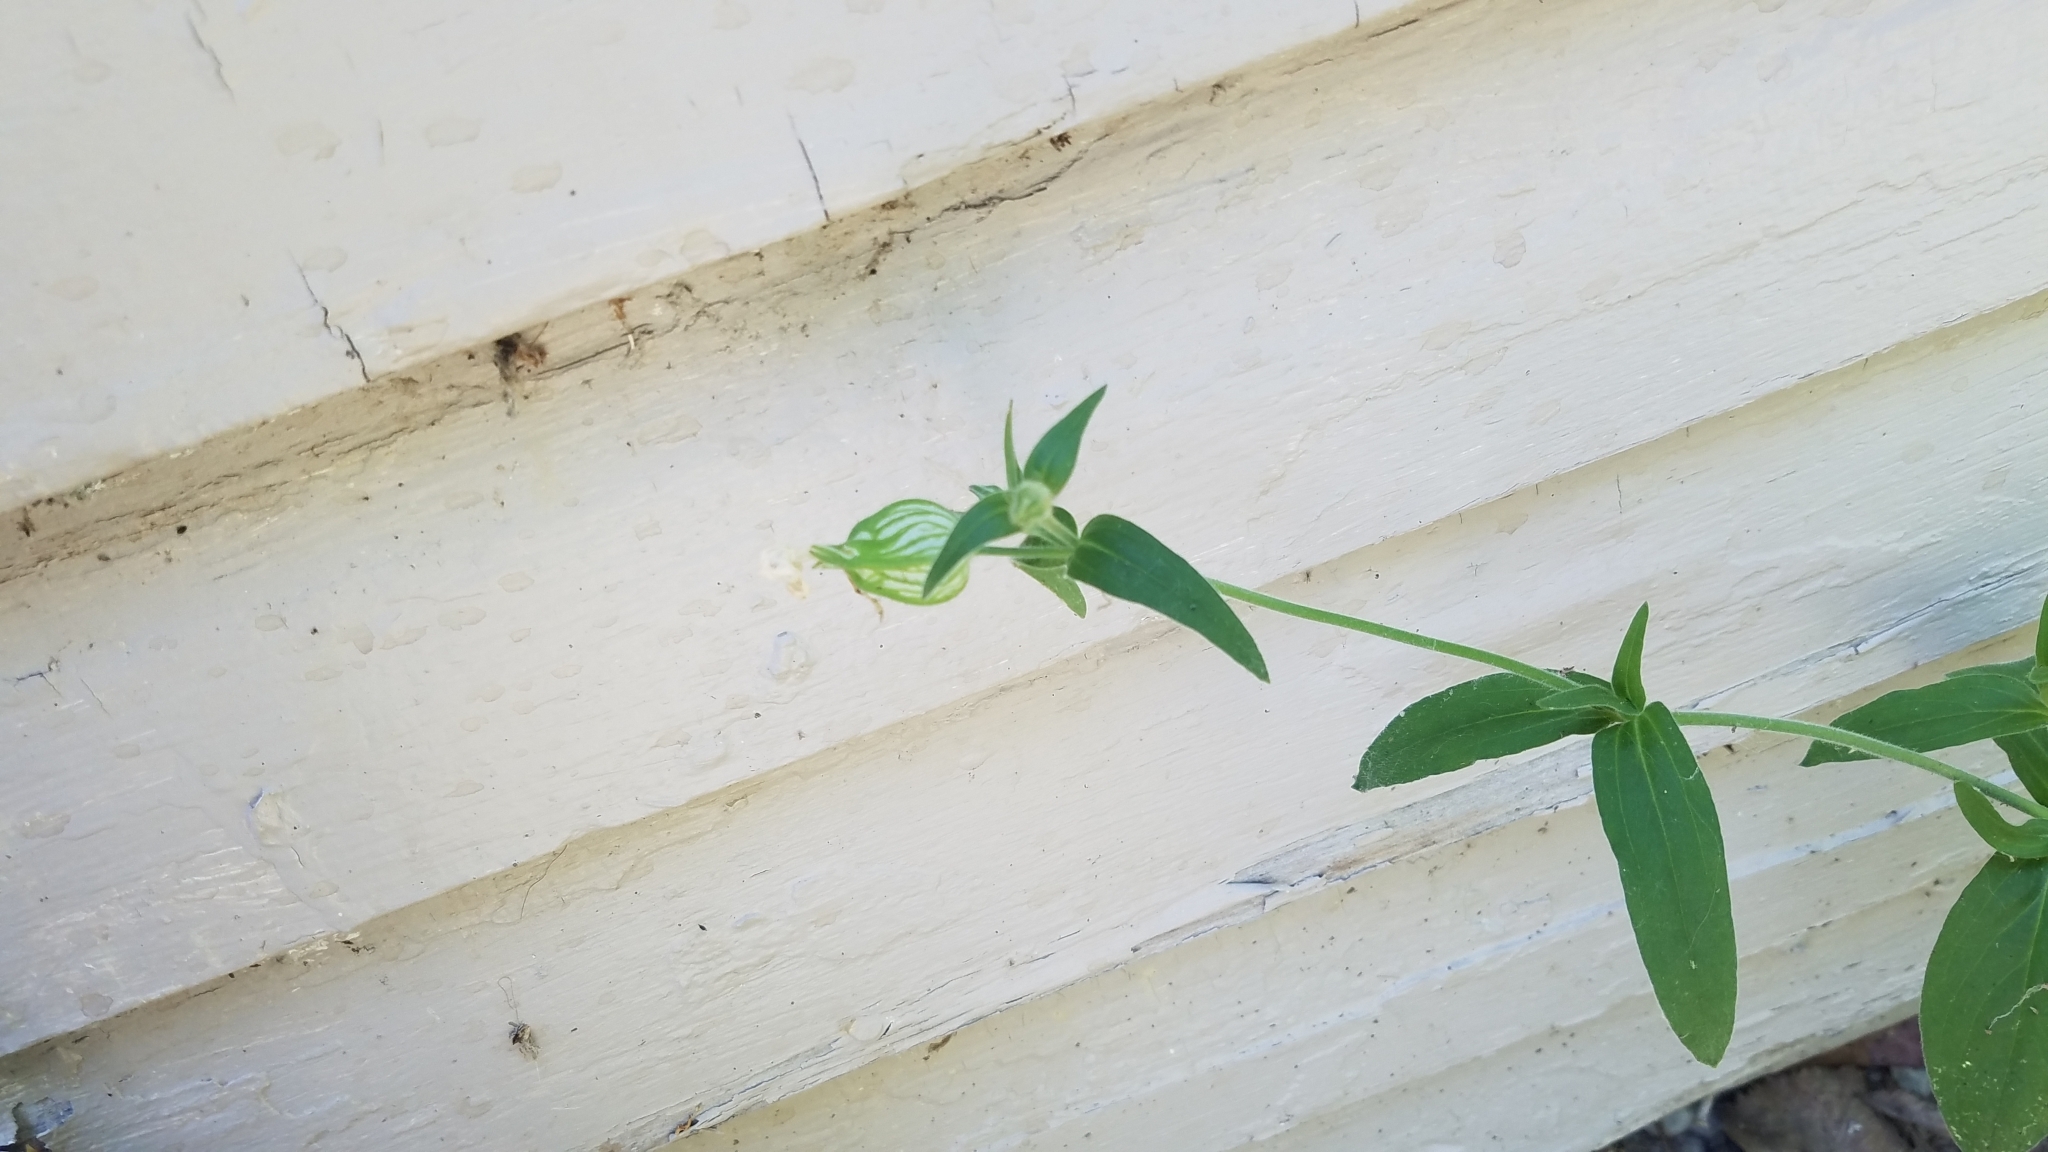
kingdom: Plantae
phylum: Tracheophyta
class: Magnoliopsida
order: Caryophyllales
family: Caryophyllaceae
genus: Silene
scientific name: Silene latifolia
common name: White campion
